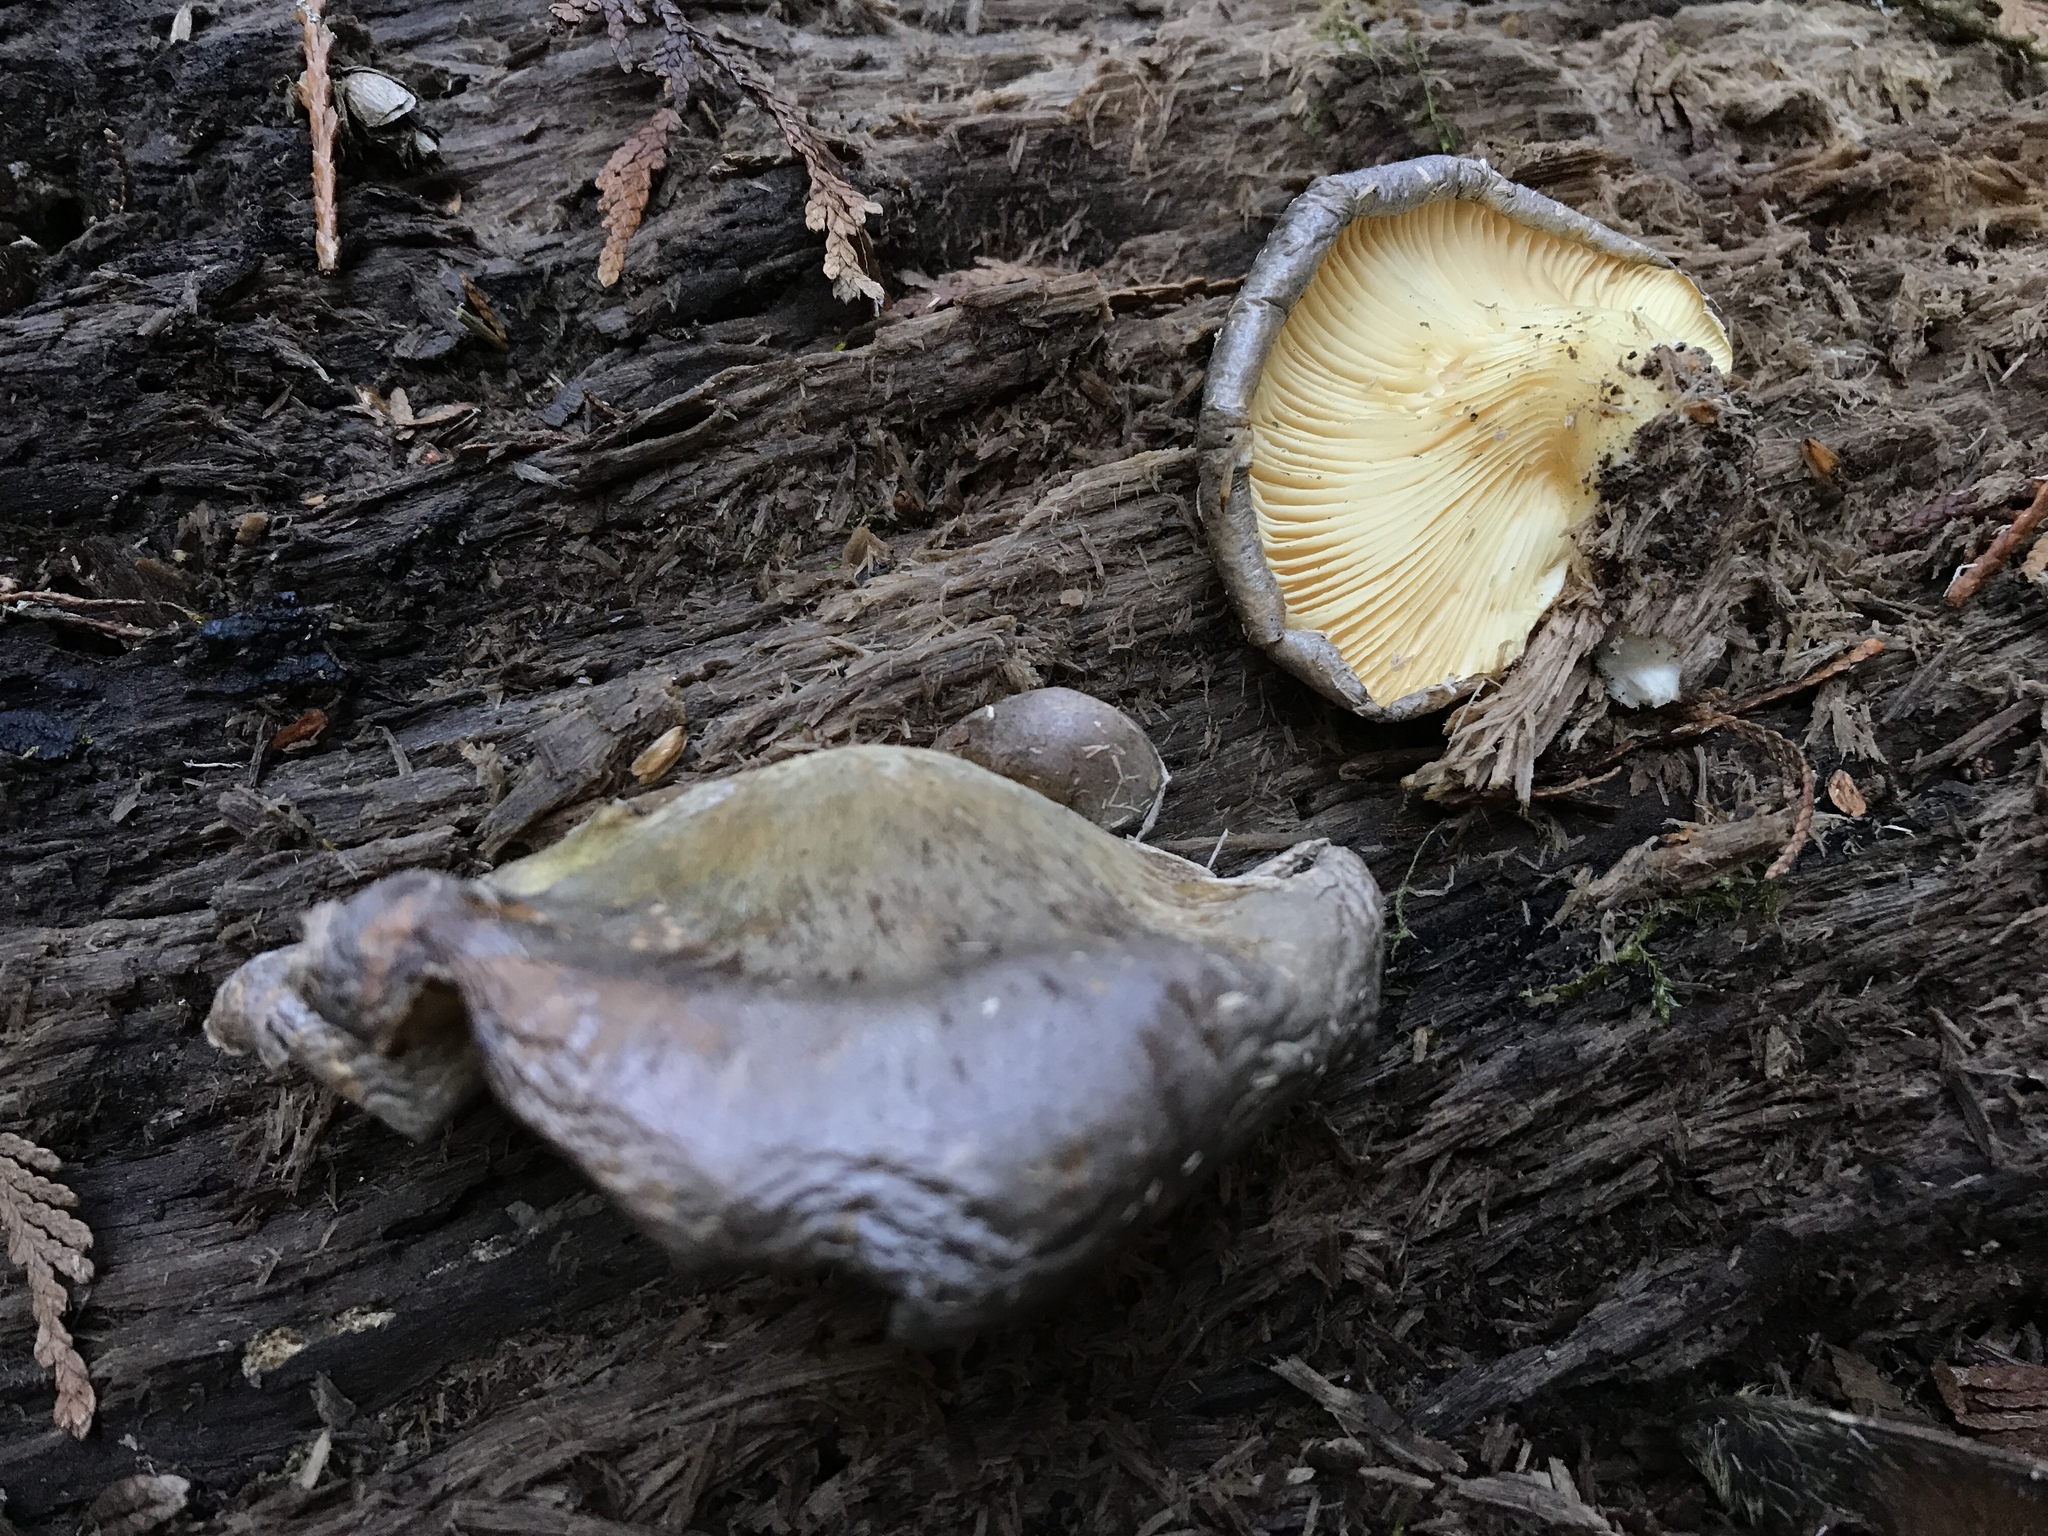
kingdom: Fungi
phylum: Basidiomycota
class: Agaricomycetes
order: Agaricales
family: Sarcomyxaceae
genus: Sarcomyxa
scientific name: Sarcomyxa serotina
